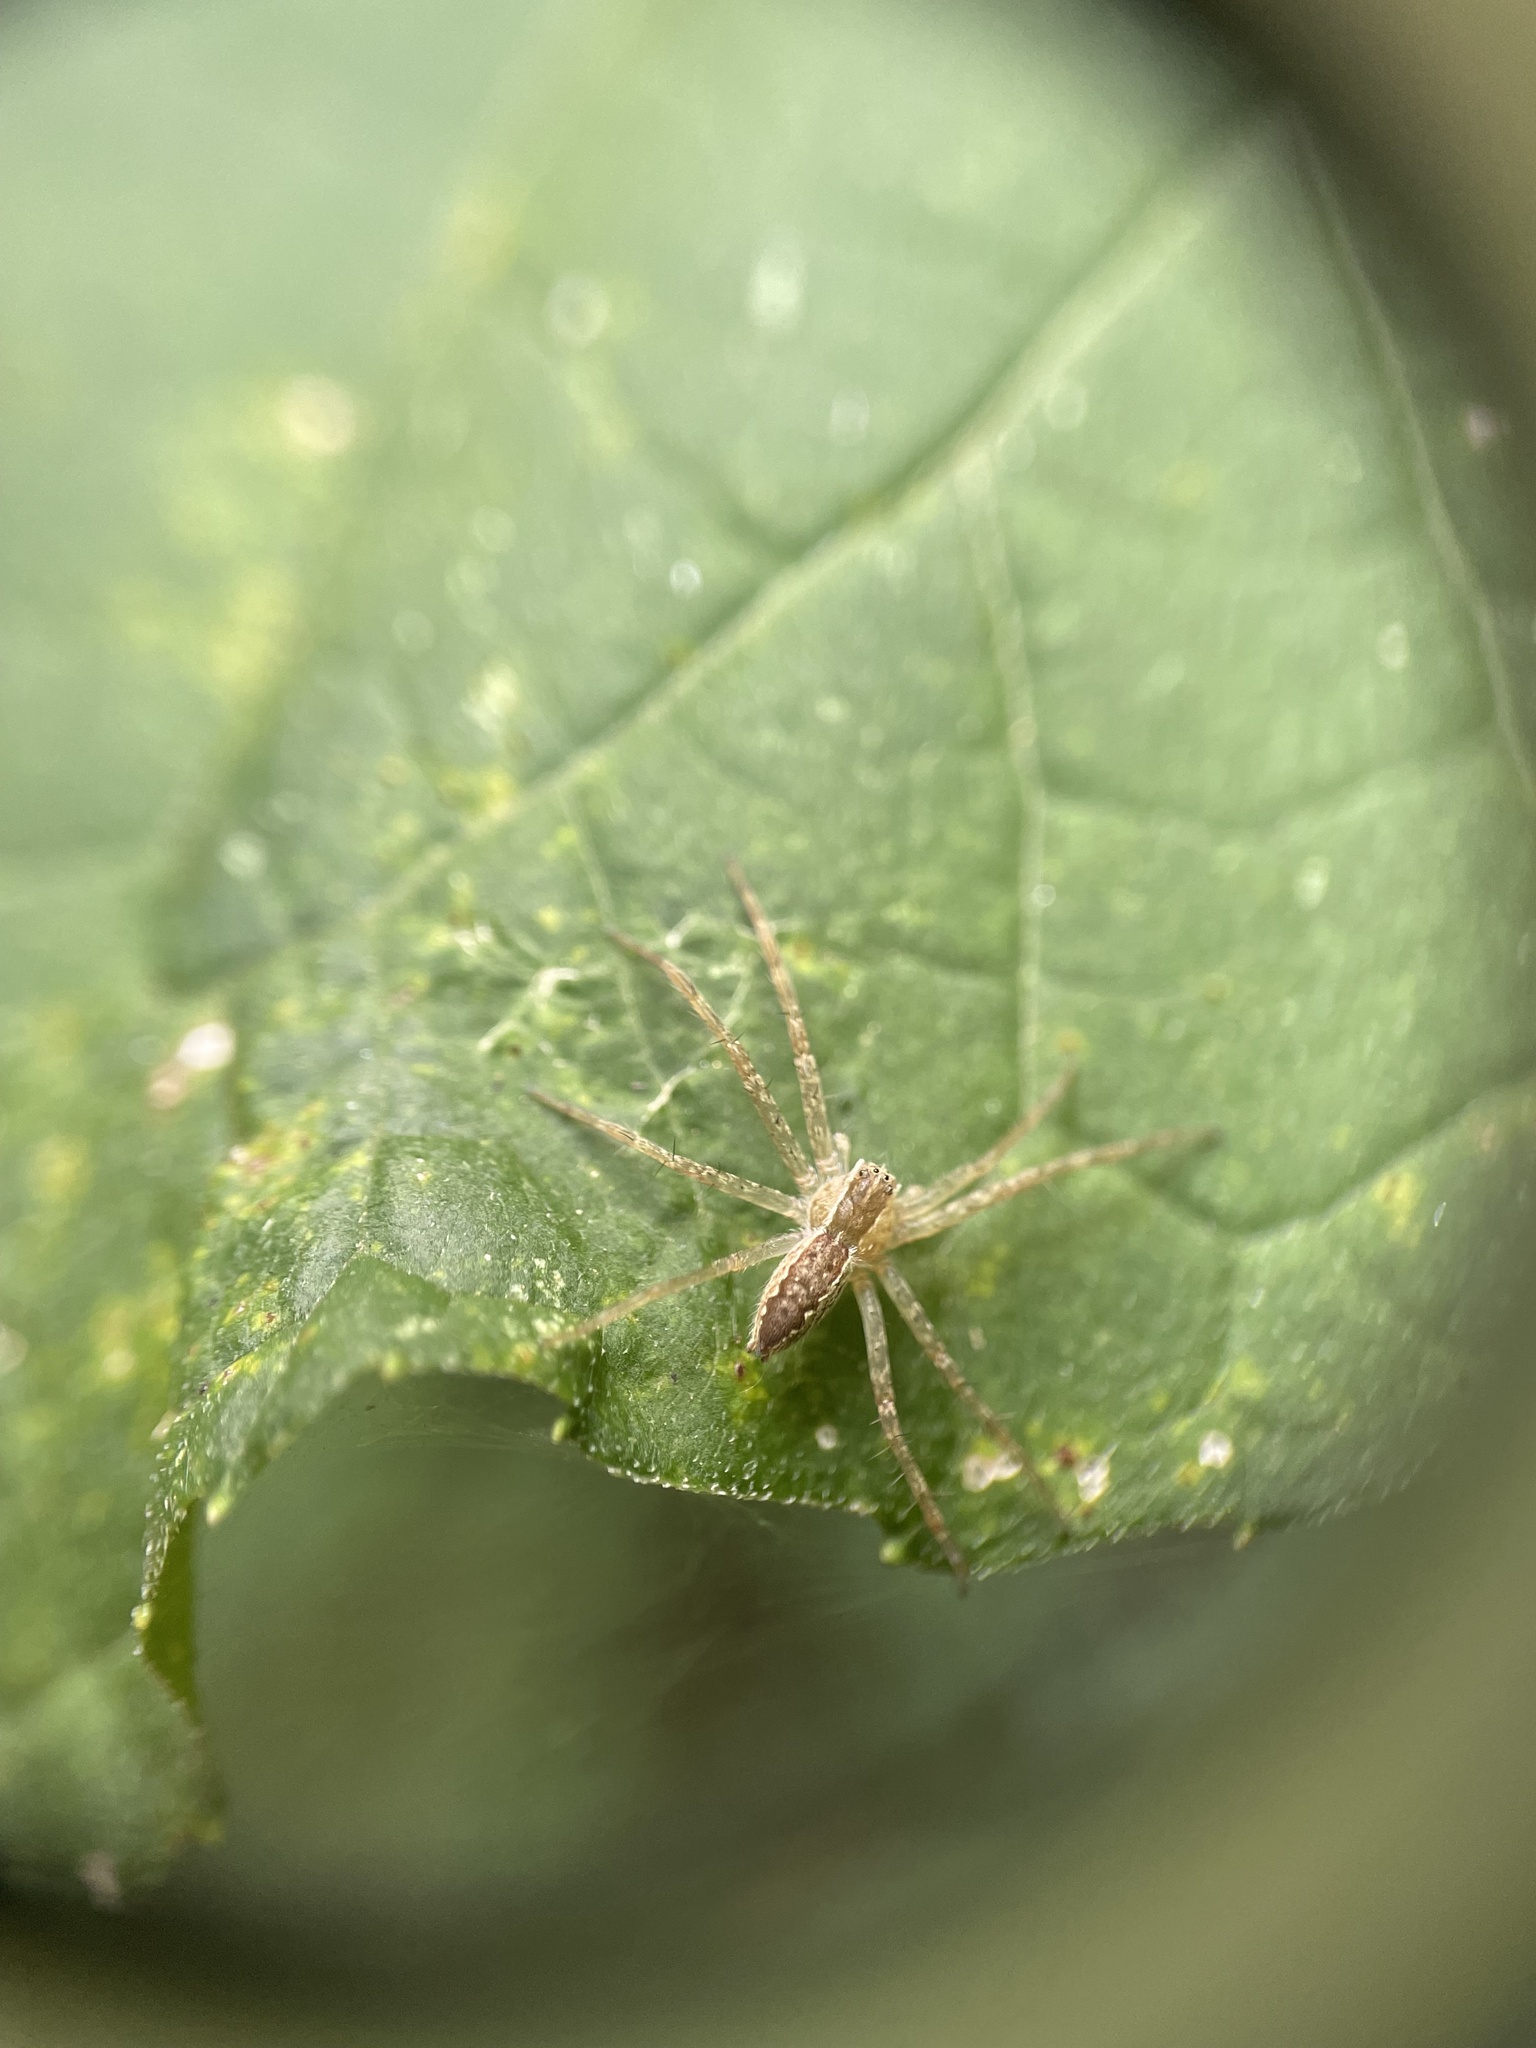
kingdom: Animalia
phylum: Arthropoda
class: Arachnida
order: Araneae
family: Pisauridae
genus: Pisaurina
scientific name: Pisaurina mira
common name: American nursery web spider
